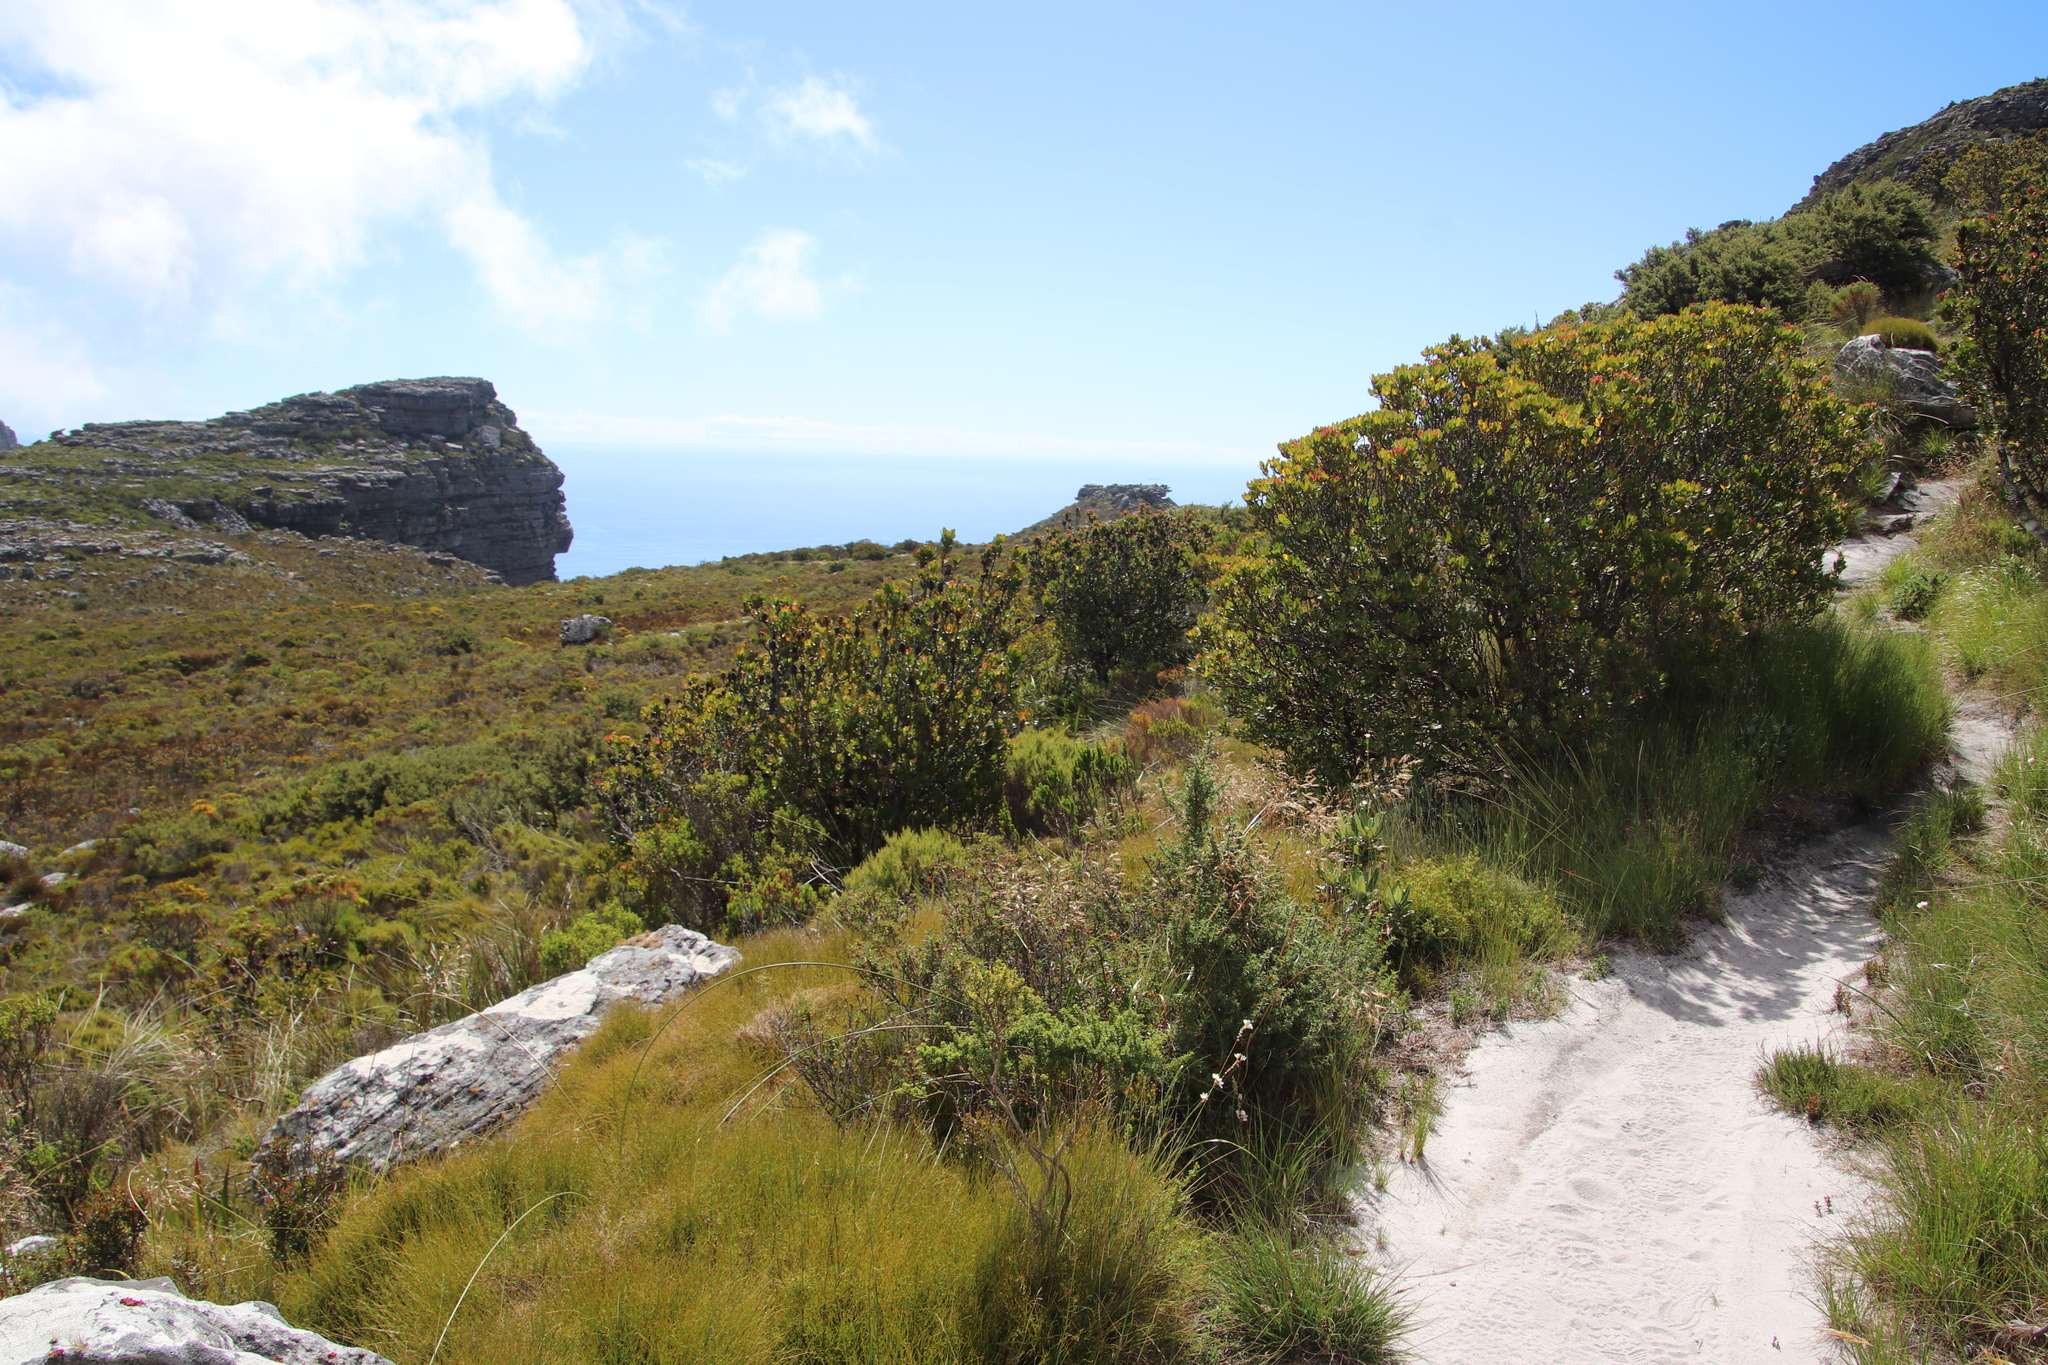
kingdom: Plantae
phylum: Tracheophyta
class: Magnoliopsida
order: Proteales
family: Proteaceae
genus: Leucadendron
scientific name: Leucadendron strobilinum
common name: Mountain rose
